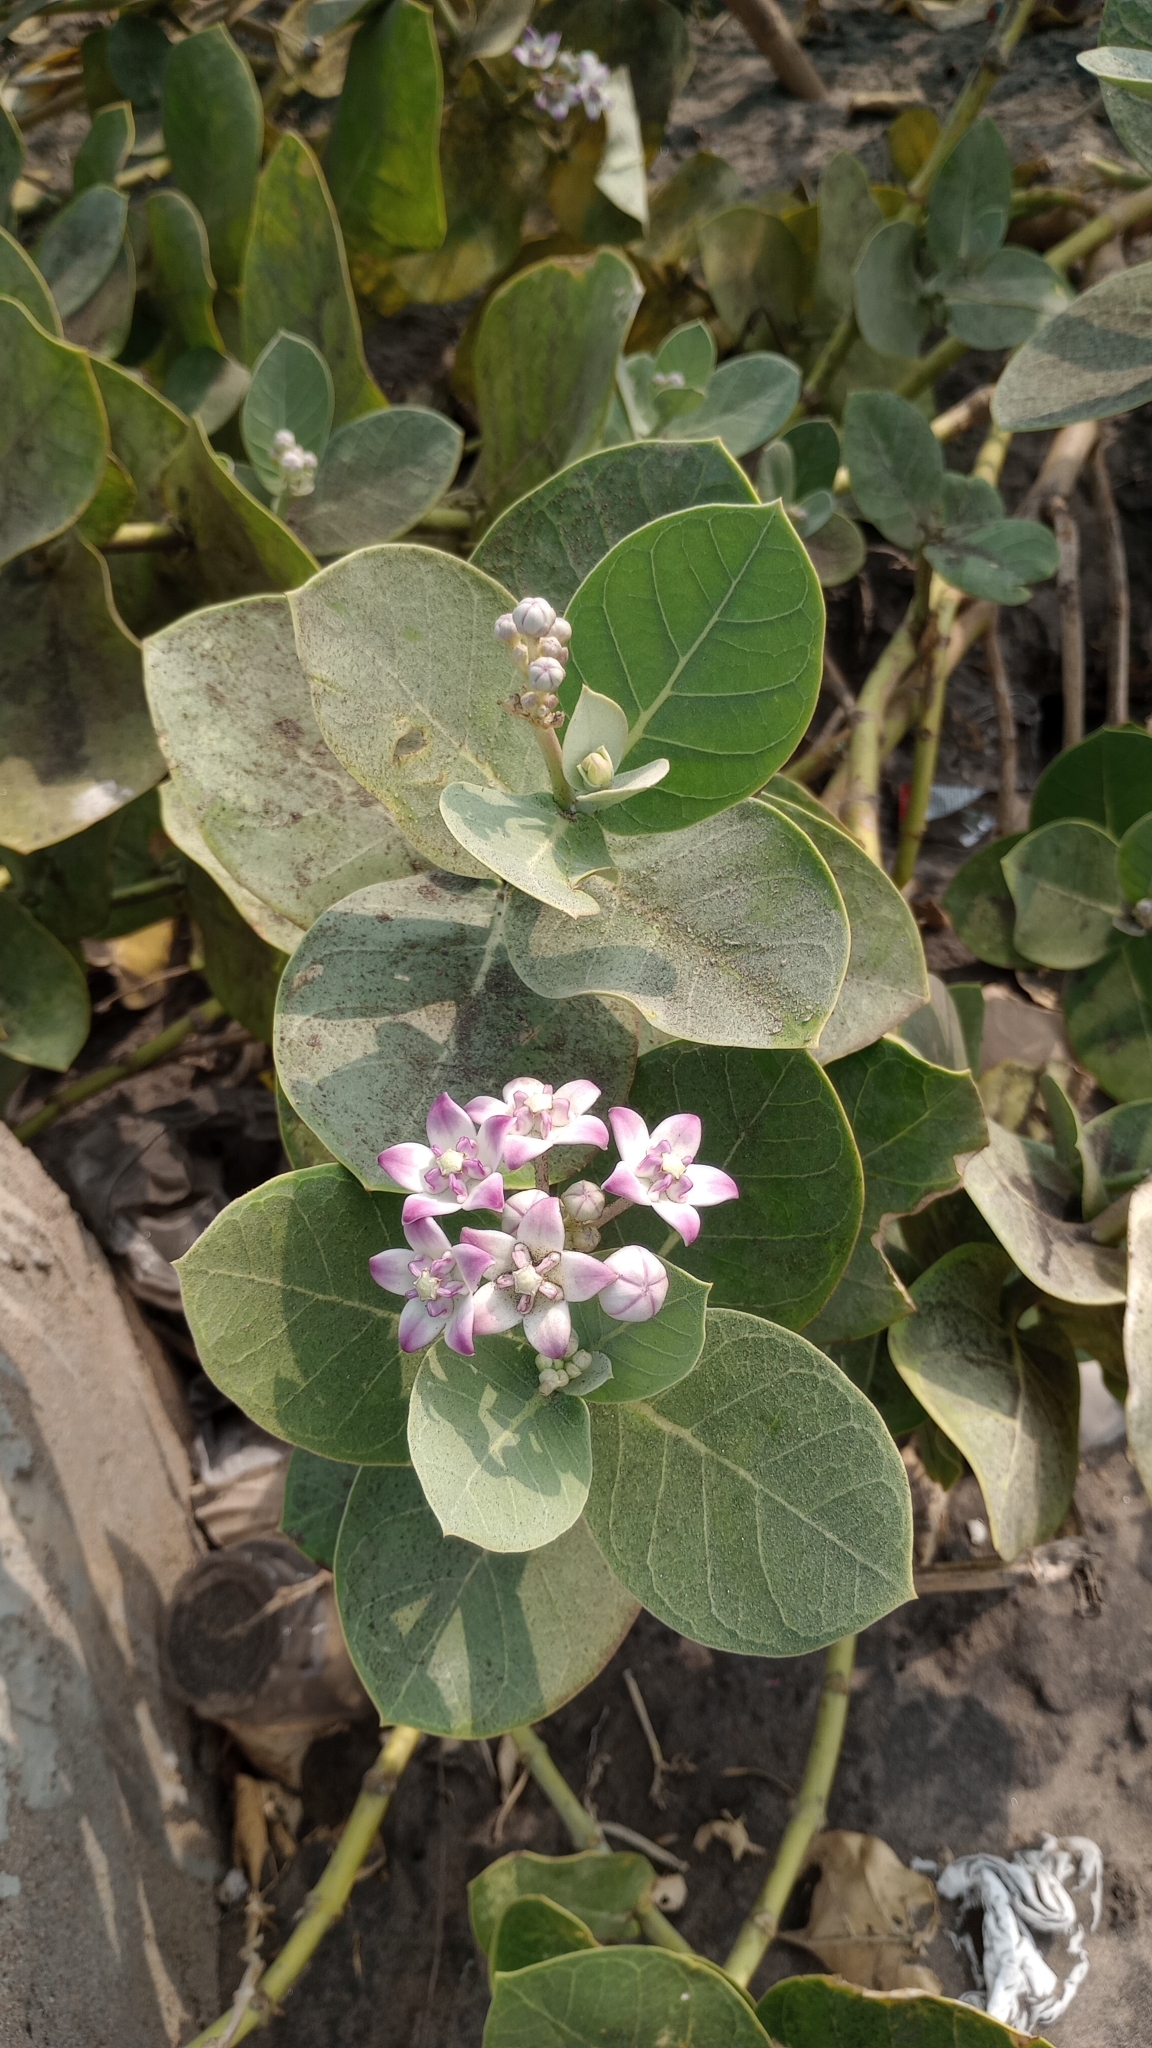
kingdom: Plantae
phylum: Tracheophyta
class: Magnoliopsida
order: Gentianales
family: Apocynaceae
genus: Calotropis
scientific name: Calotropis procera
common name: Roostertree
